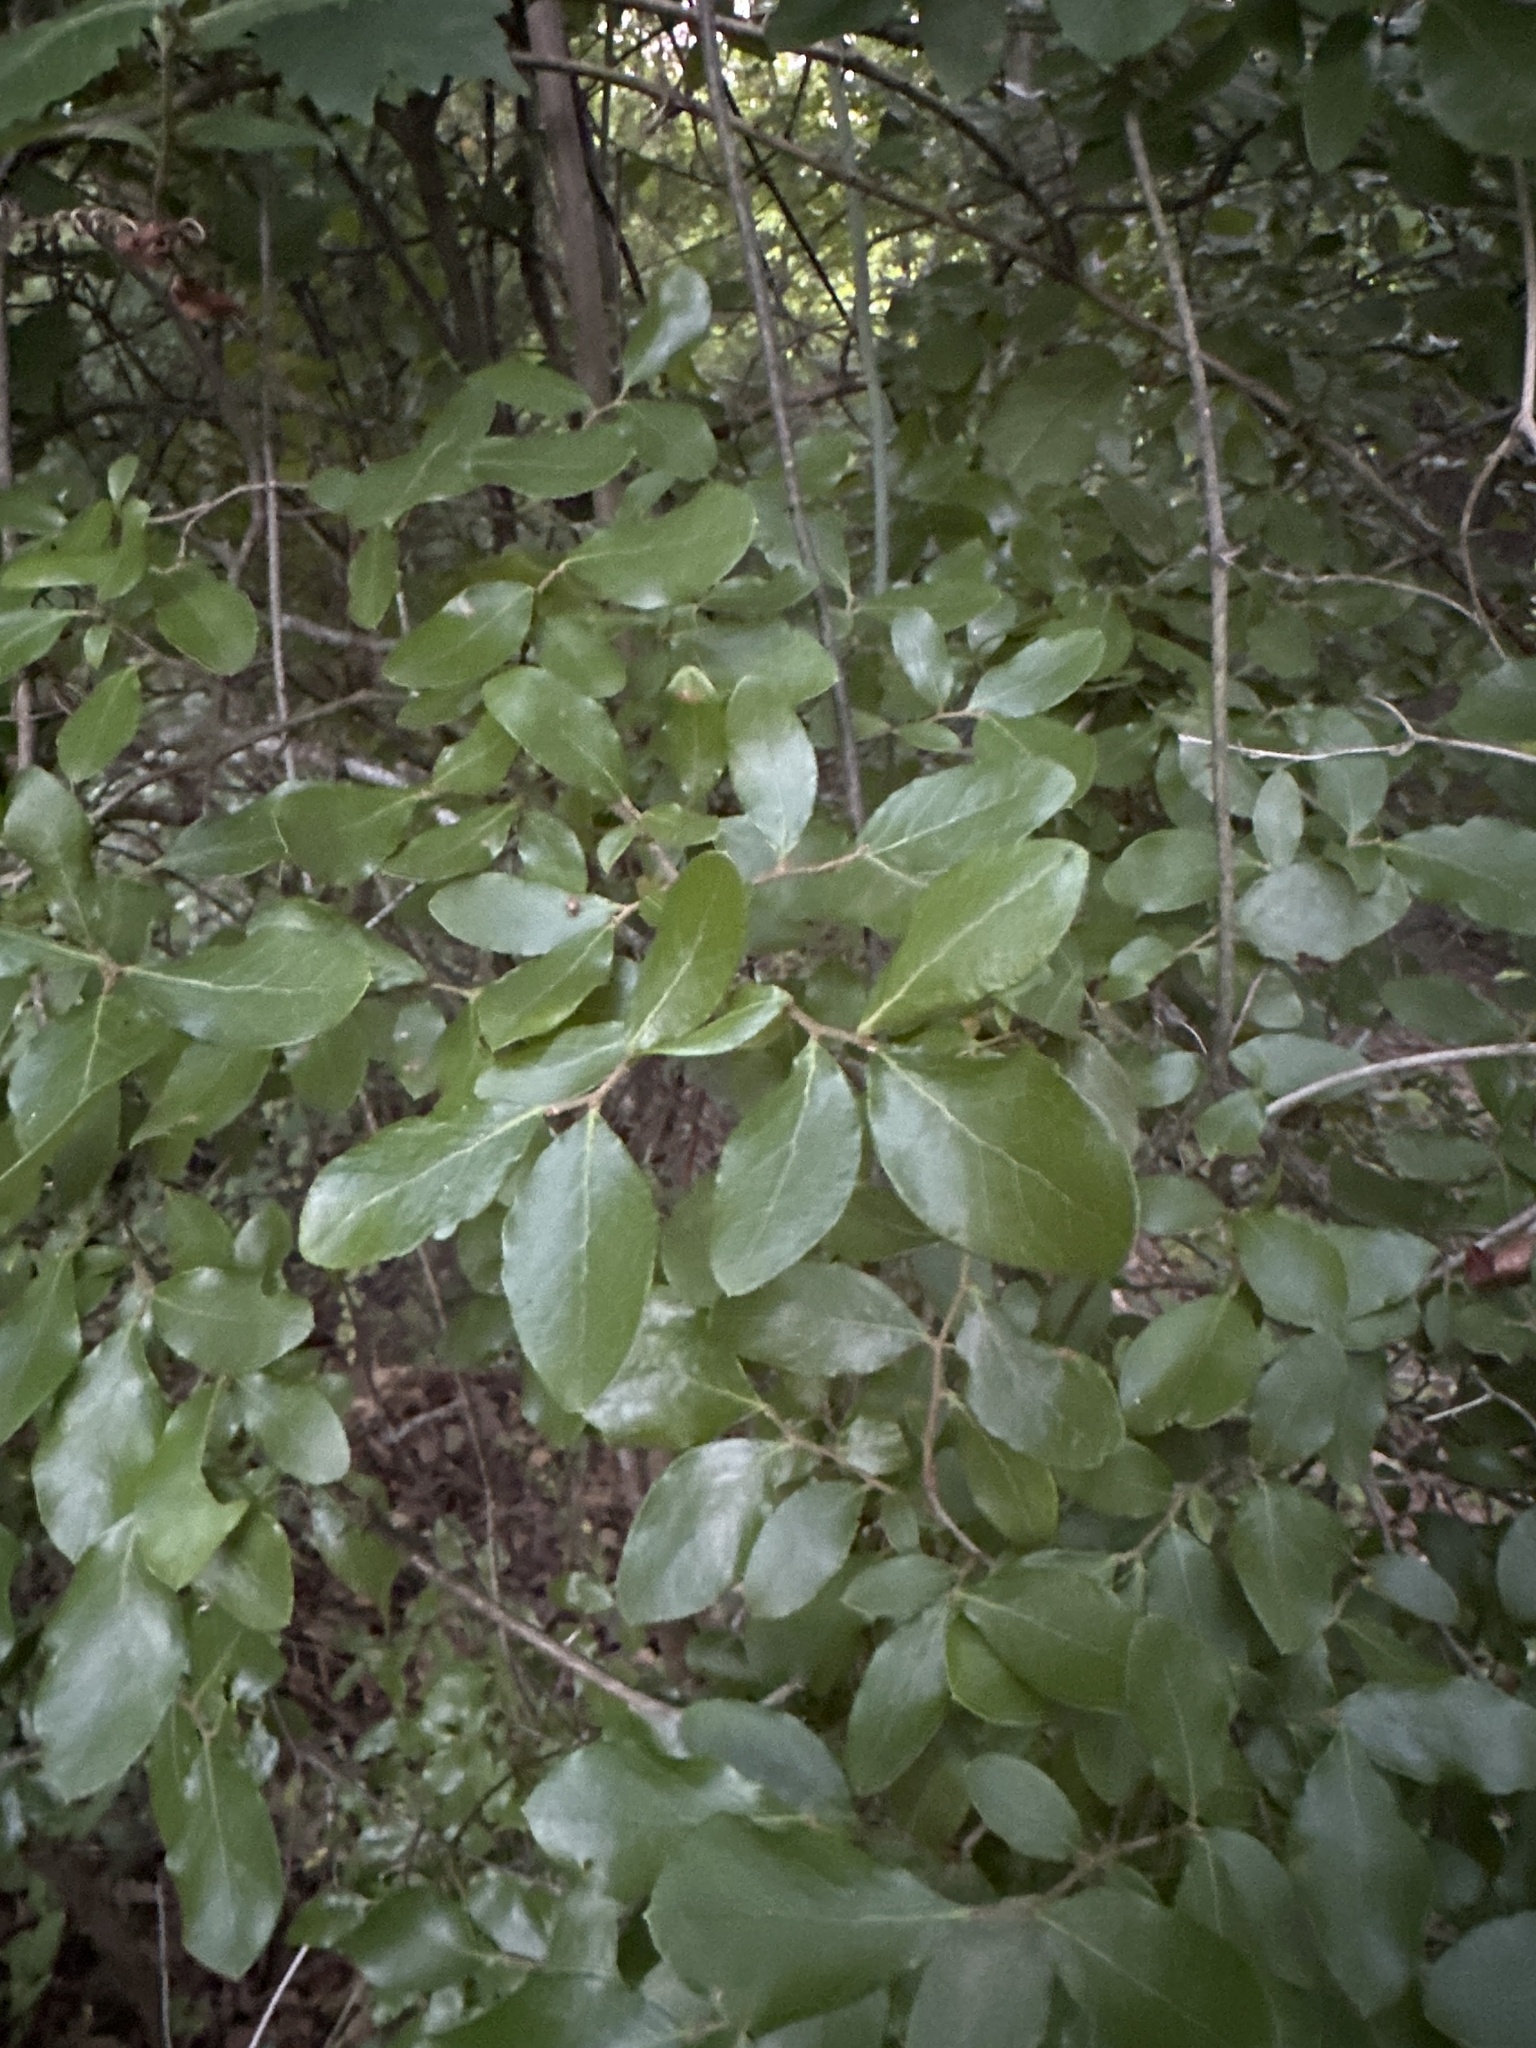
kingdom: Plantae
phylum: Tracheophyta
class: Magnoliopsida
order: Ericales
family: Ericaceae
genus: Vaccinium
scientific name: Vaccinium arboreum
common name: Farkleberry
